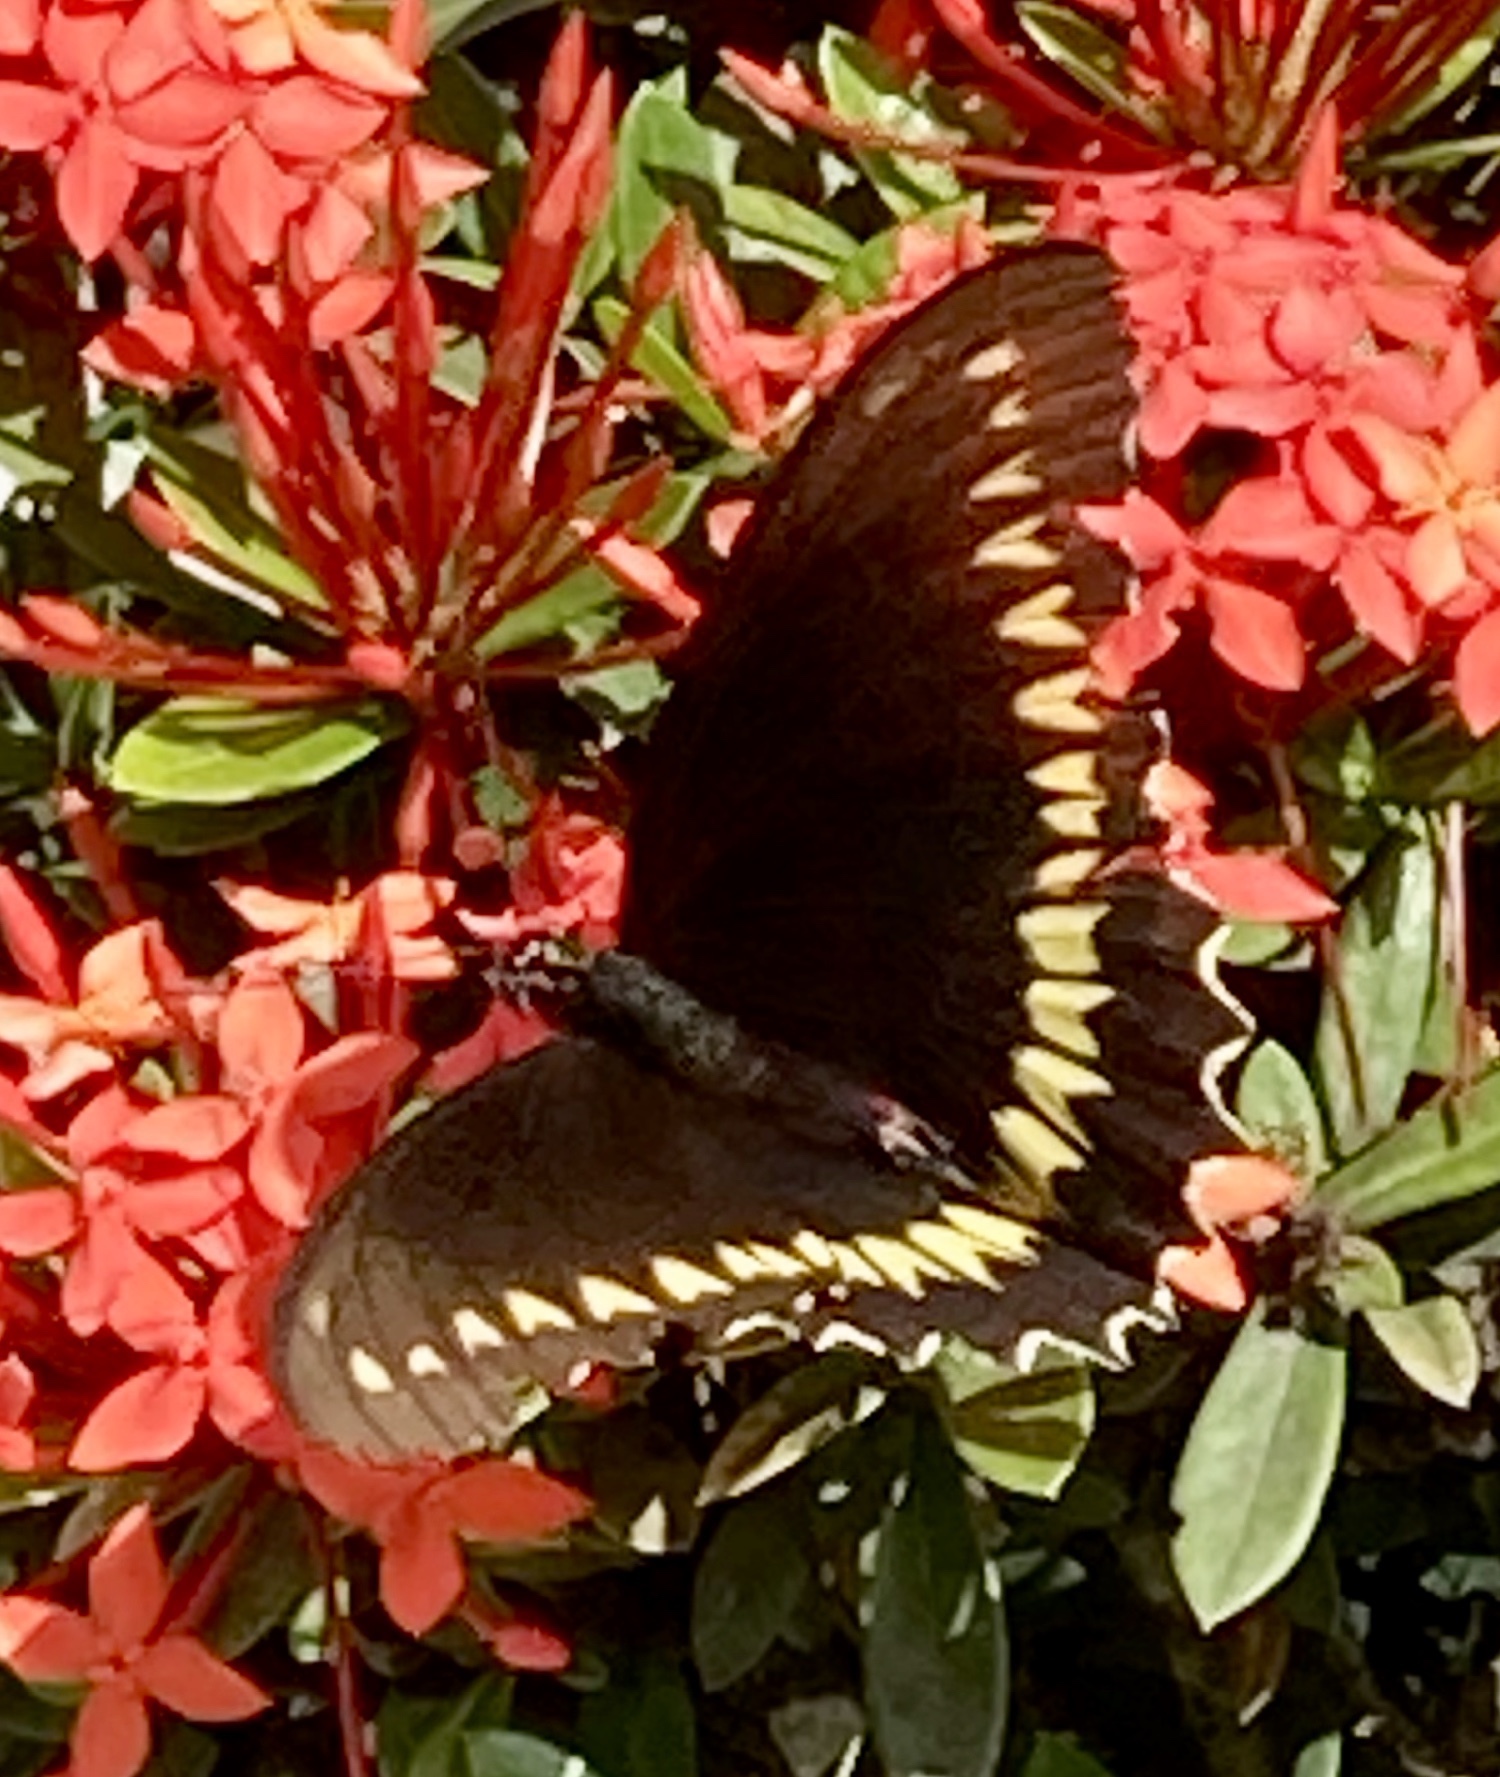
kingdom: Animalia
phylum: Arthropoda
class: Insecta
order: Lepidoptera
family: Papilionidae
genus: Battus
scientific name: Battus polydamas
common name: Polydamas swallowtail
